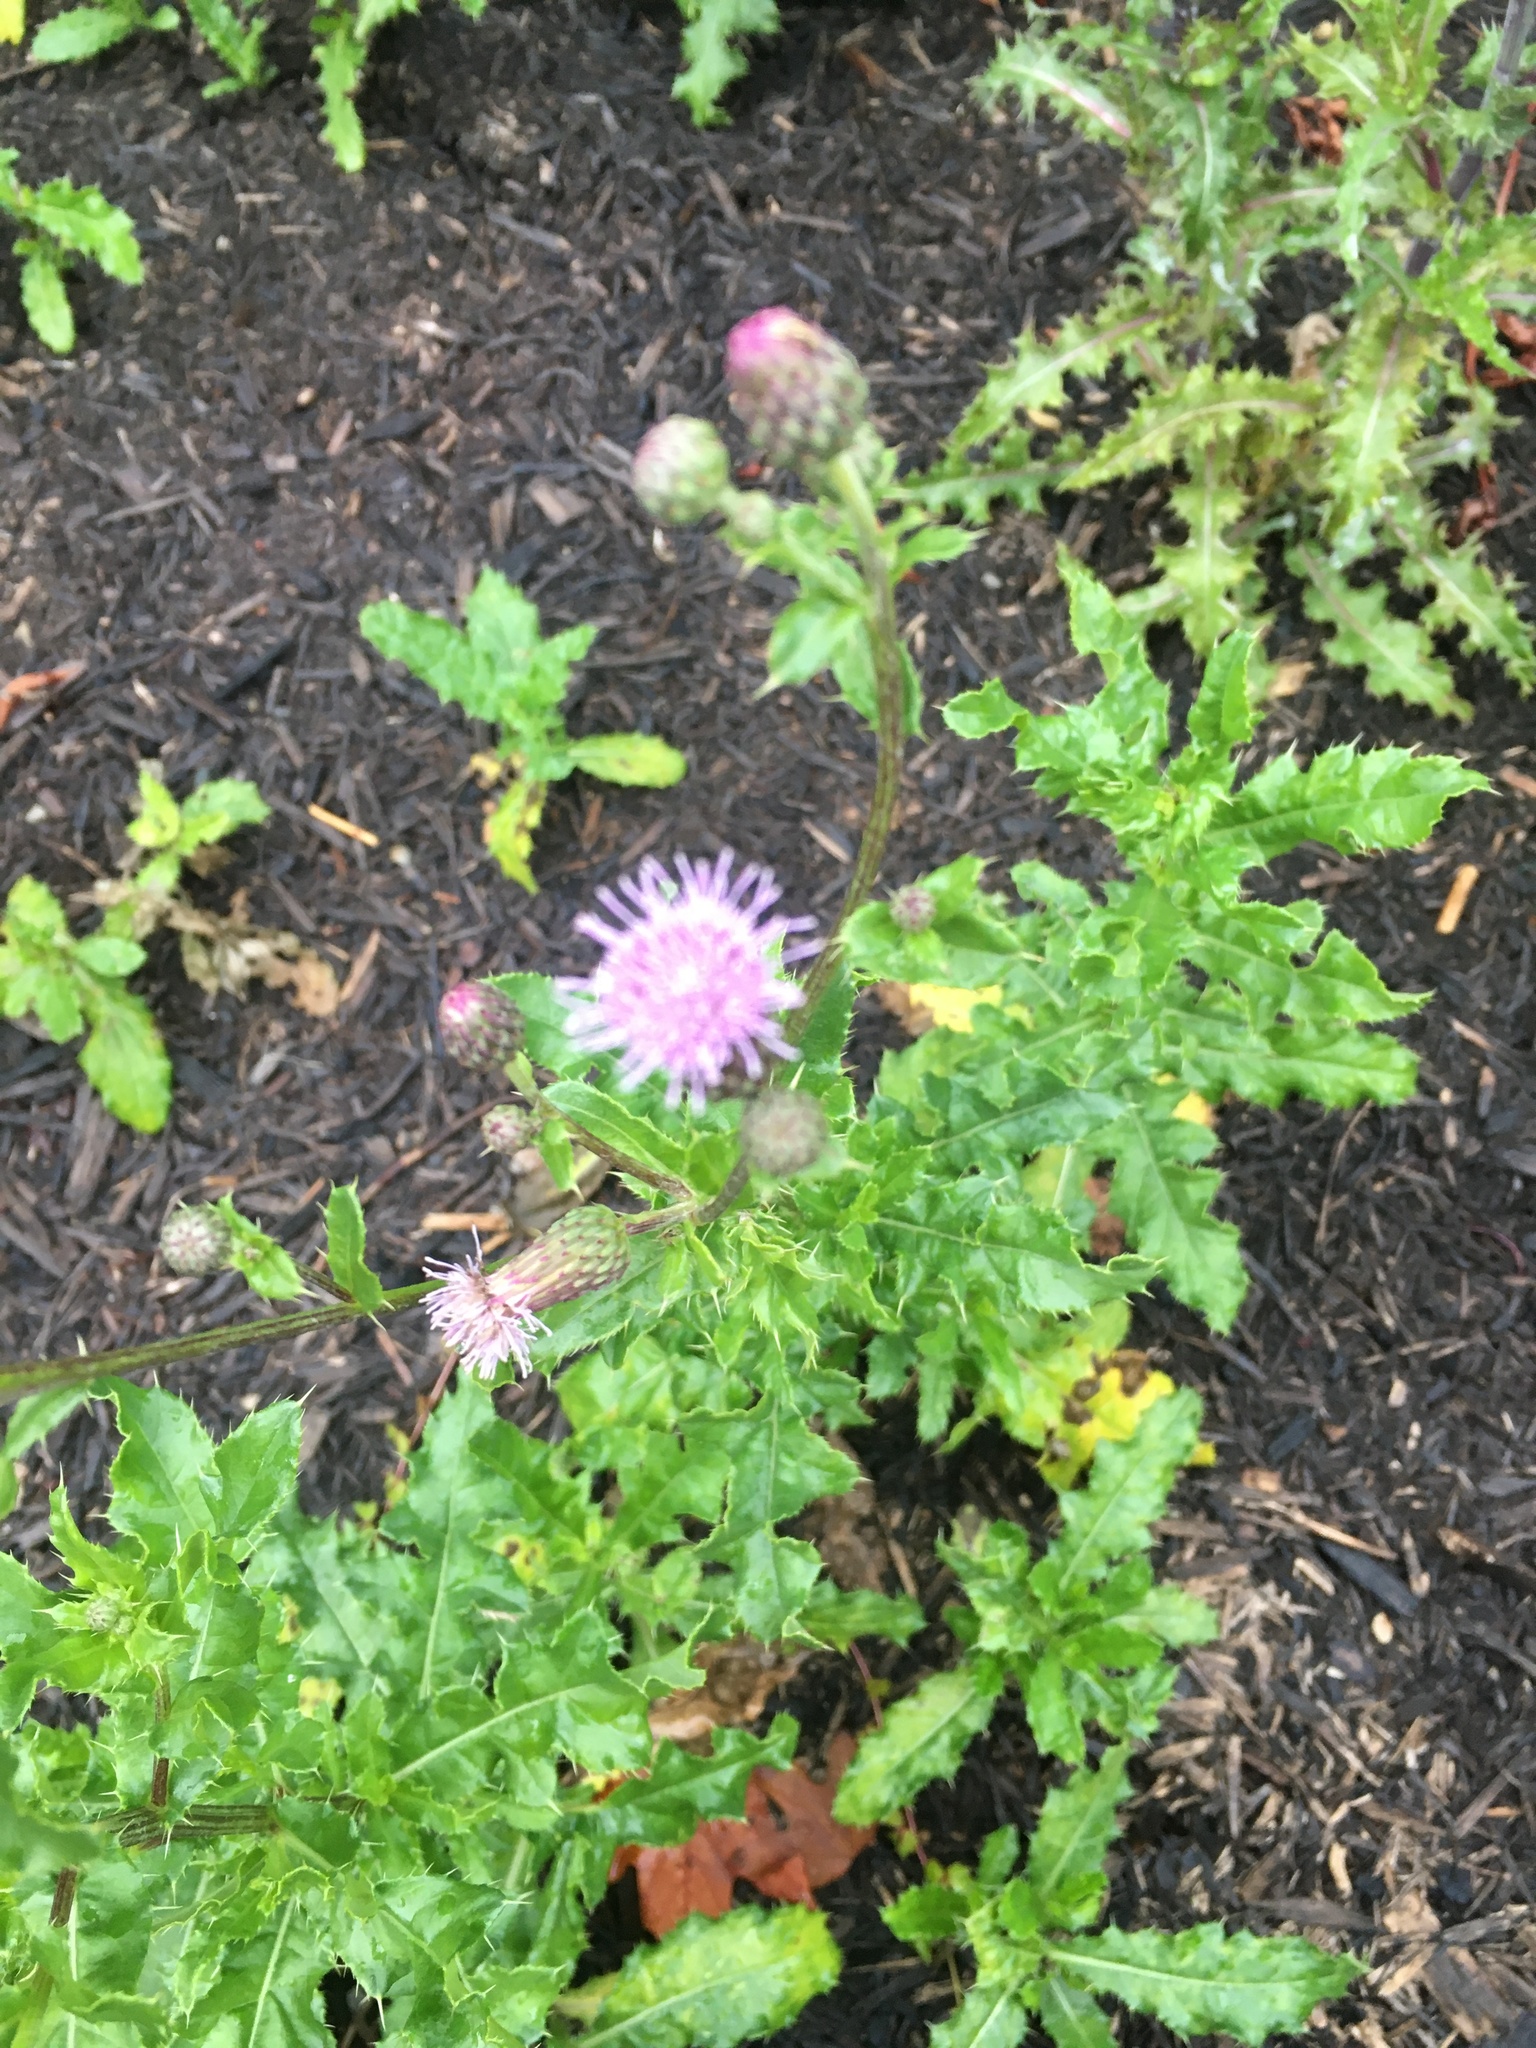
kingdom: Plantae
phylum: Tracheophyta
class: Magnoliopsida
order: Asterales
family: Asteraceae
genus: Cirsium
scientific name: Cirsium arvense
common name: Creeping thistle
